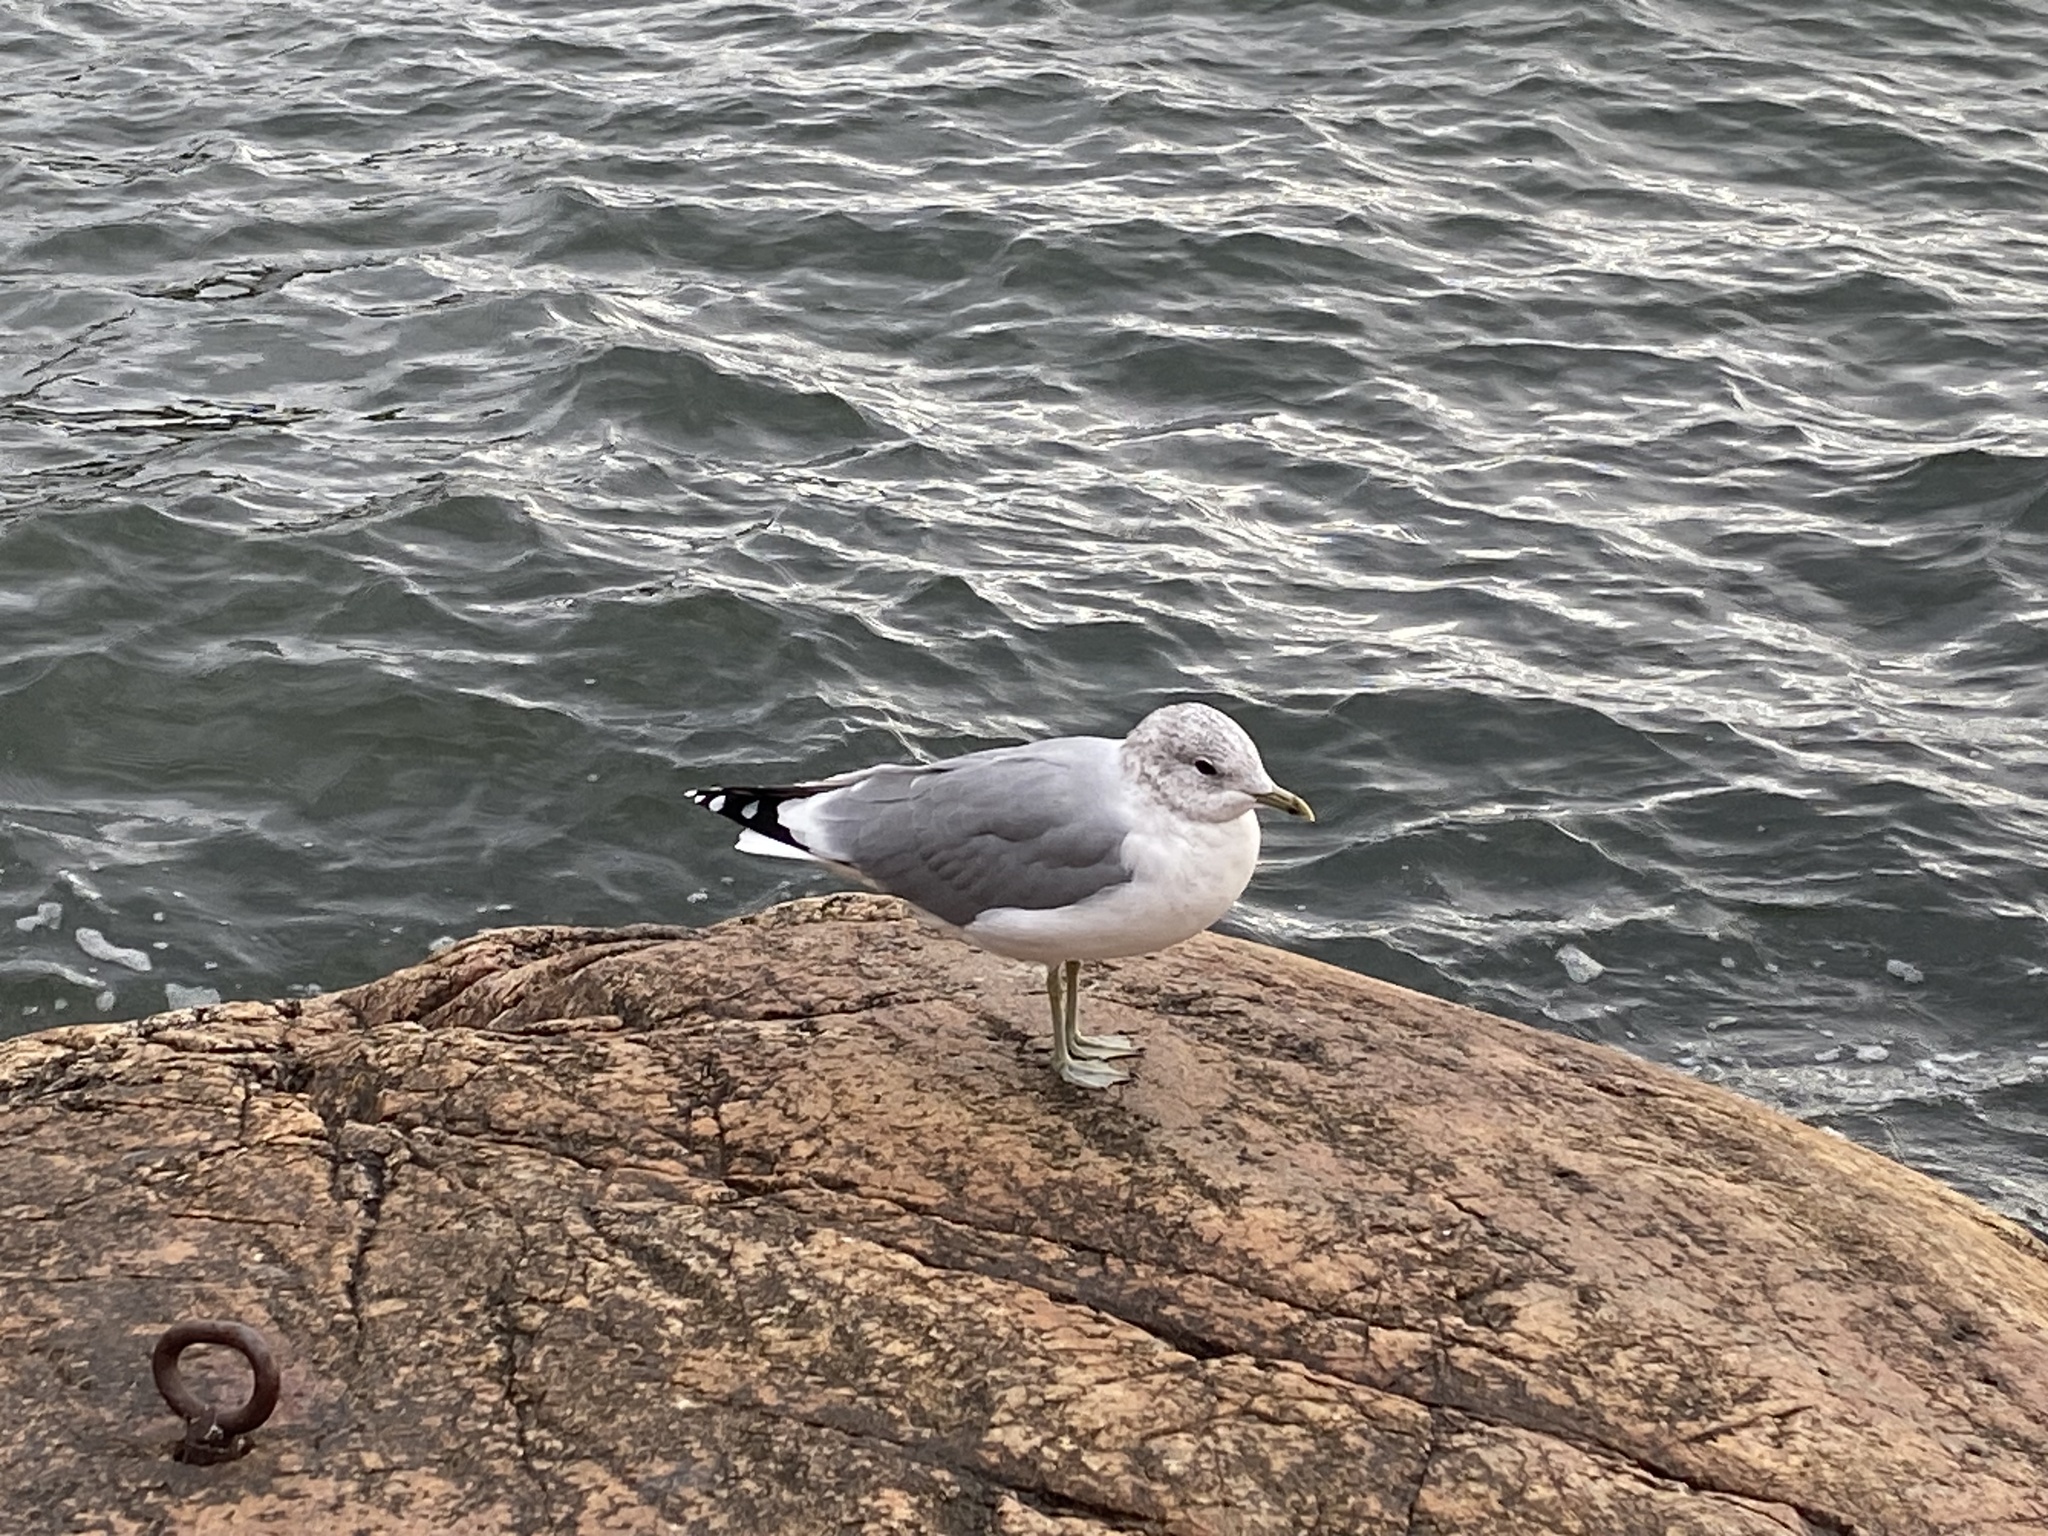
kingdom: Animalia
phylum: Chordata
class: Aves
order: Charadriiformes
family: Laridae
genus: Larus
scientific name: Larus canus
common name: Mew gull
